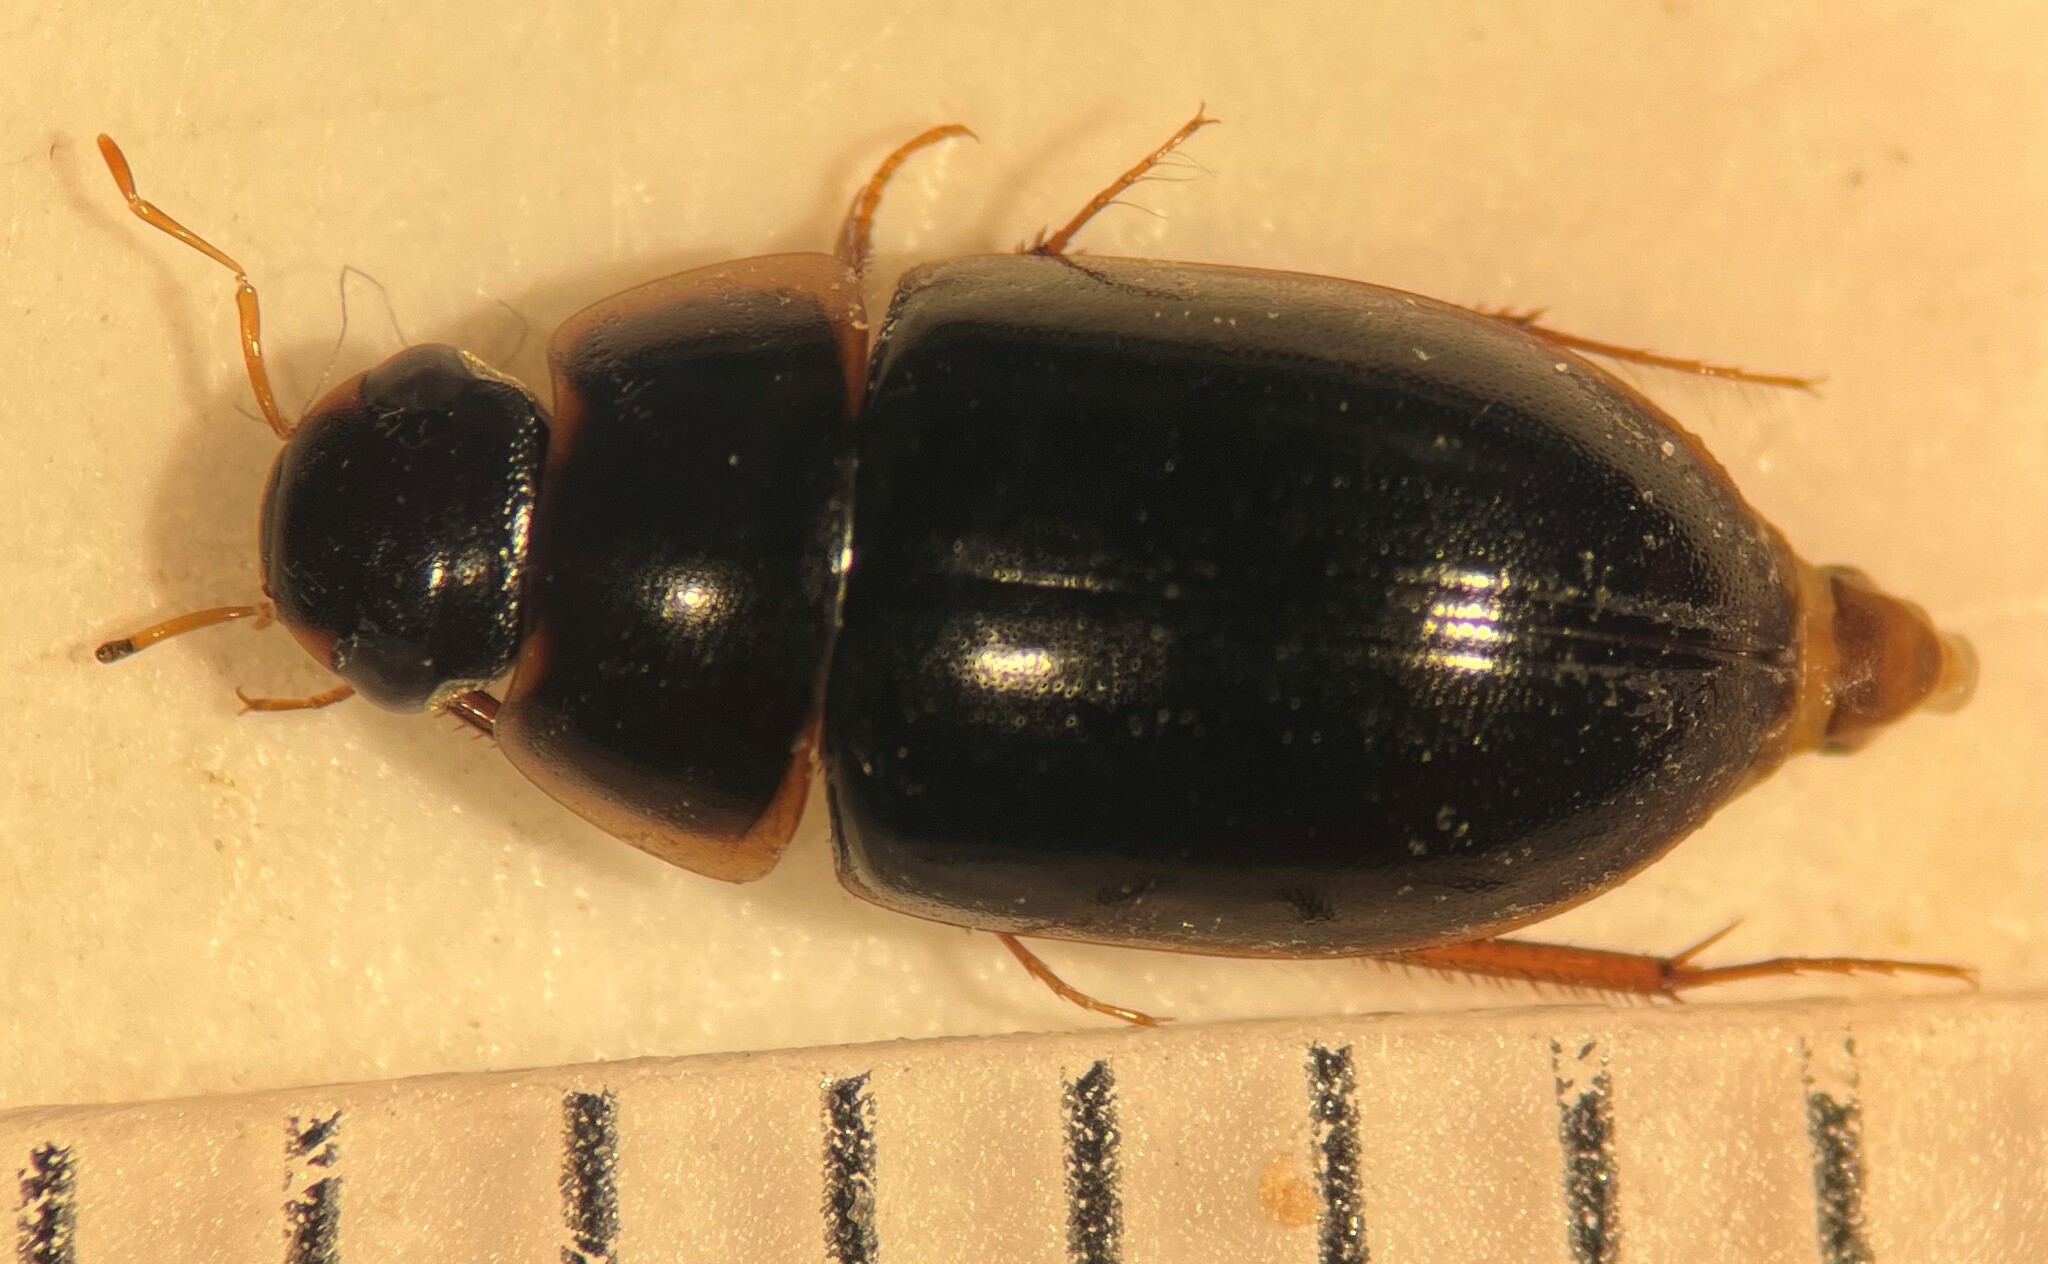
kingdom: Animalia
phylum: Arthropoda
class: Insecta
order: Coleoptera
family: Hydrophilidae
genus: Enochrus
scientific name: Enochrus fimbriatus
